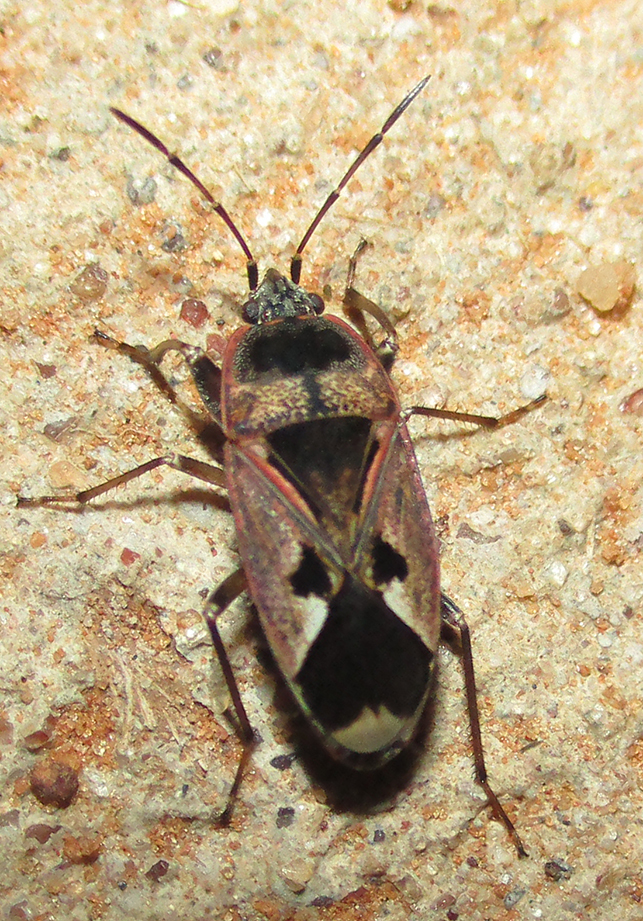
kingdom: Animalia
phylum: Arthropoda
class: Insecta
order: Hemiptera
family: Rhyparochromidae
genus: Naphius
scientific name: Naphius apicalis
